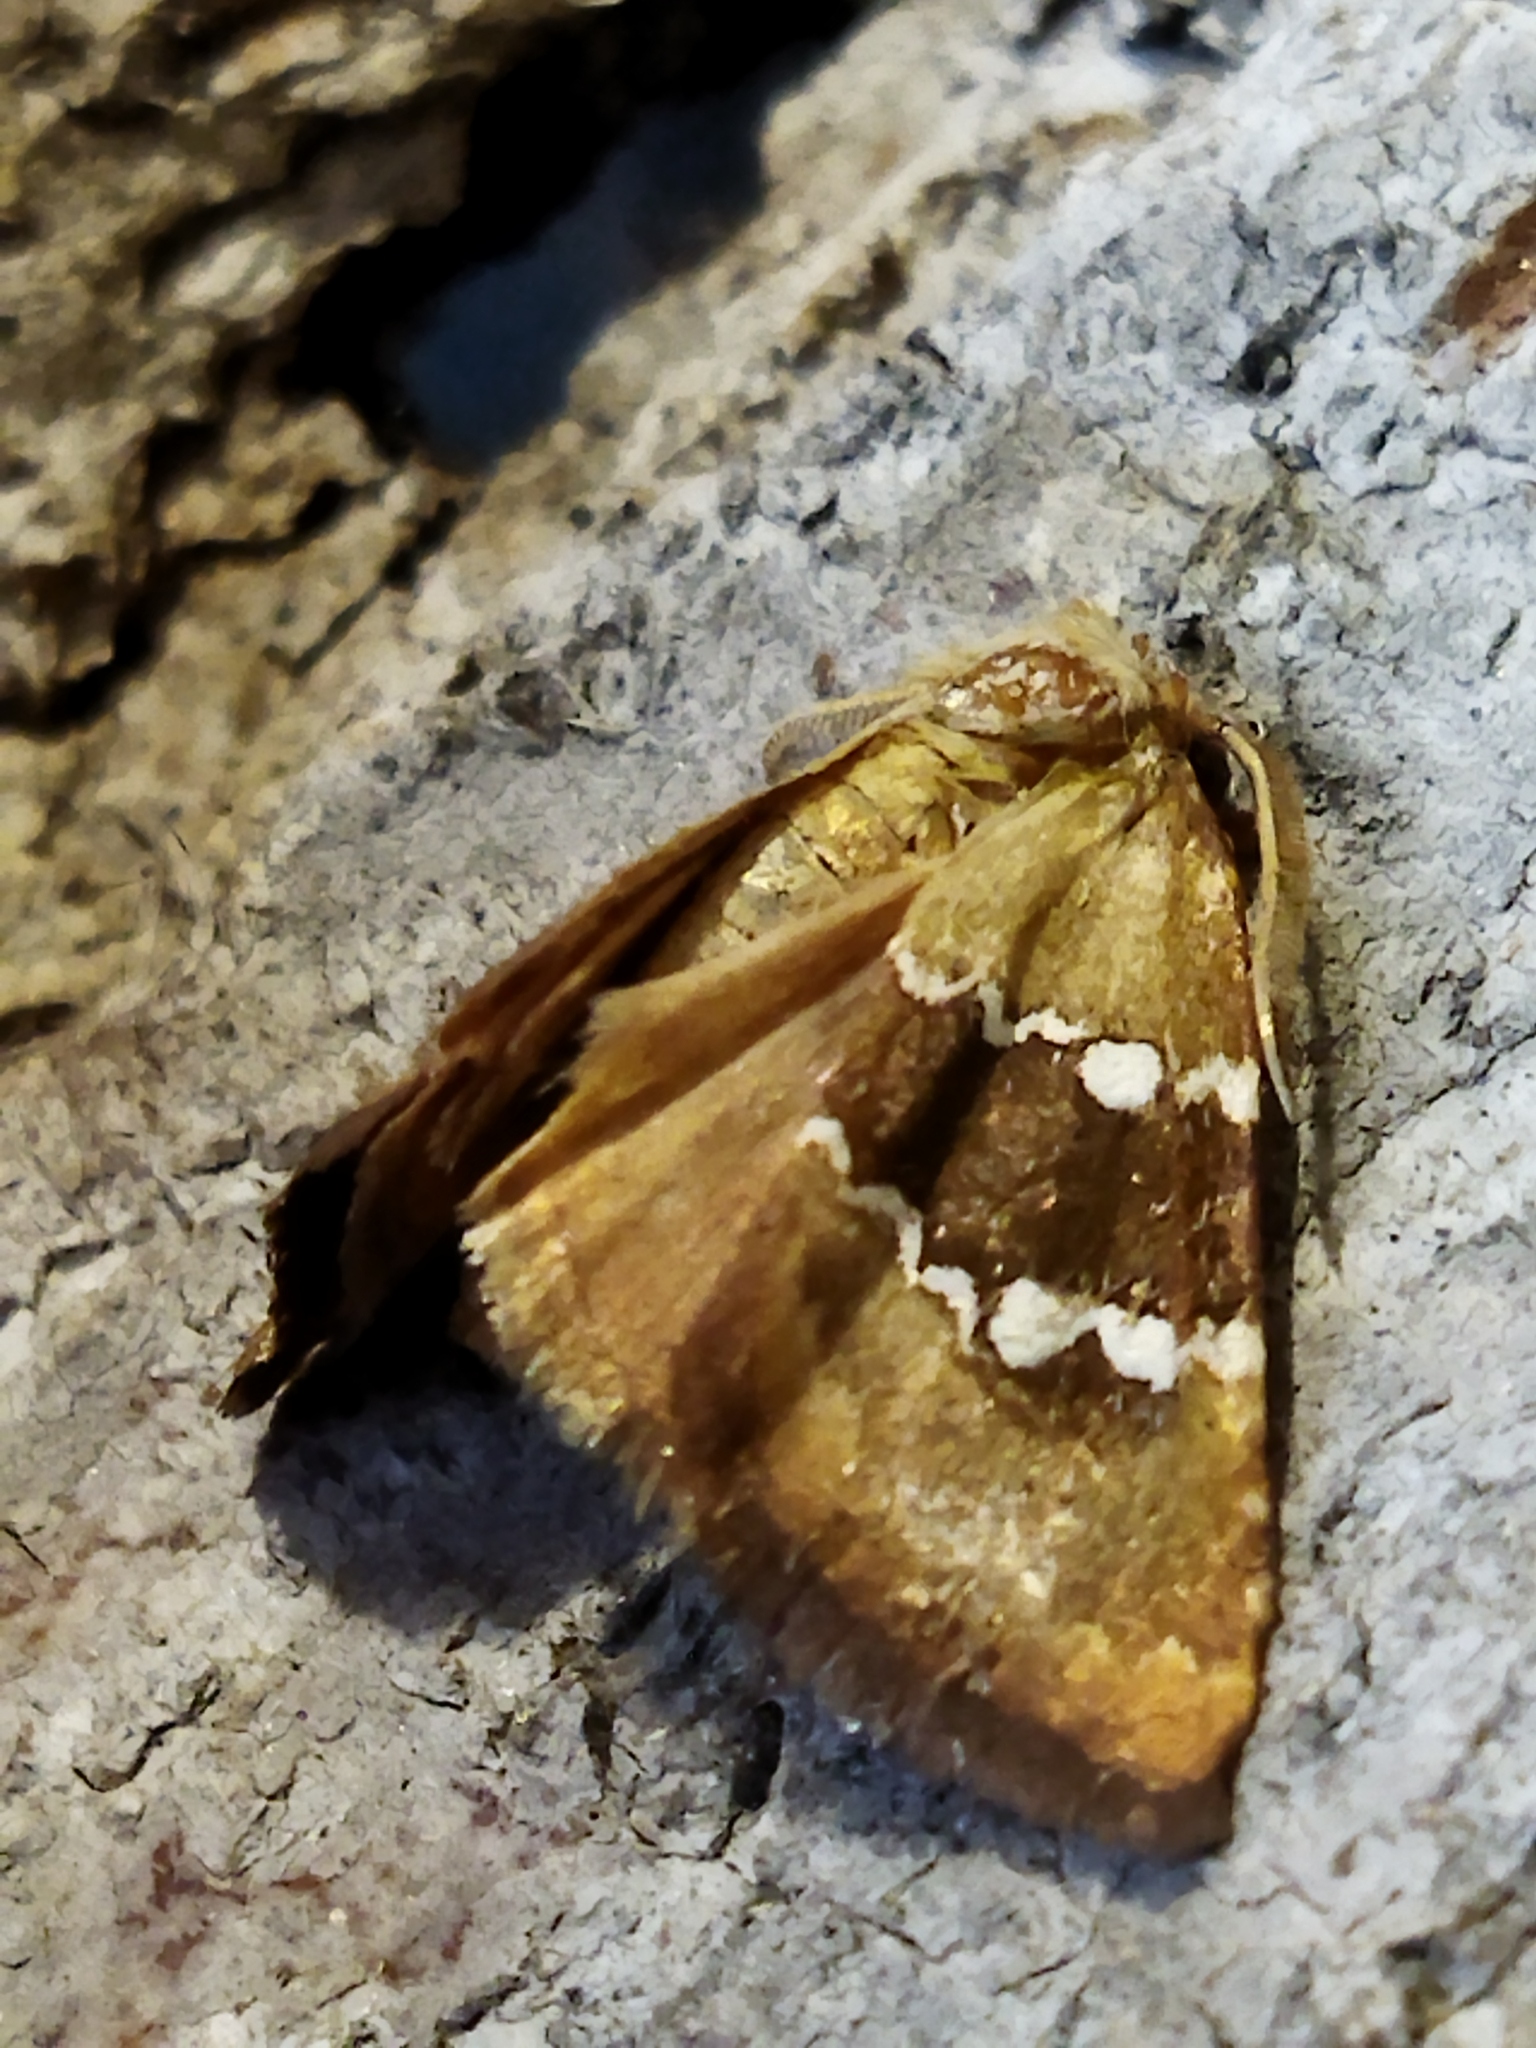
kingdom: Animalia
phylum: Arthropoda
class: Insecta
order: Lepidoptera
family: Noctuidae
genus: Haemerosia
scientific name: Haemerosia vassilininei
